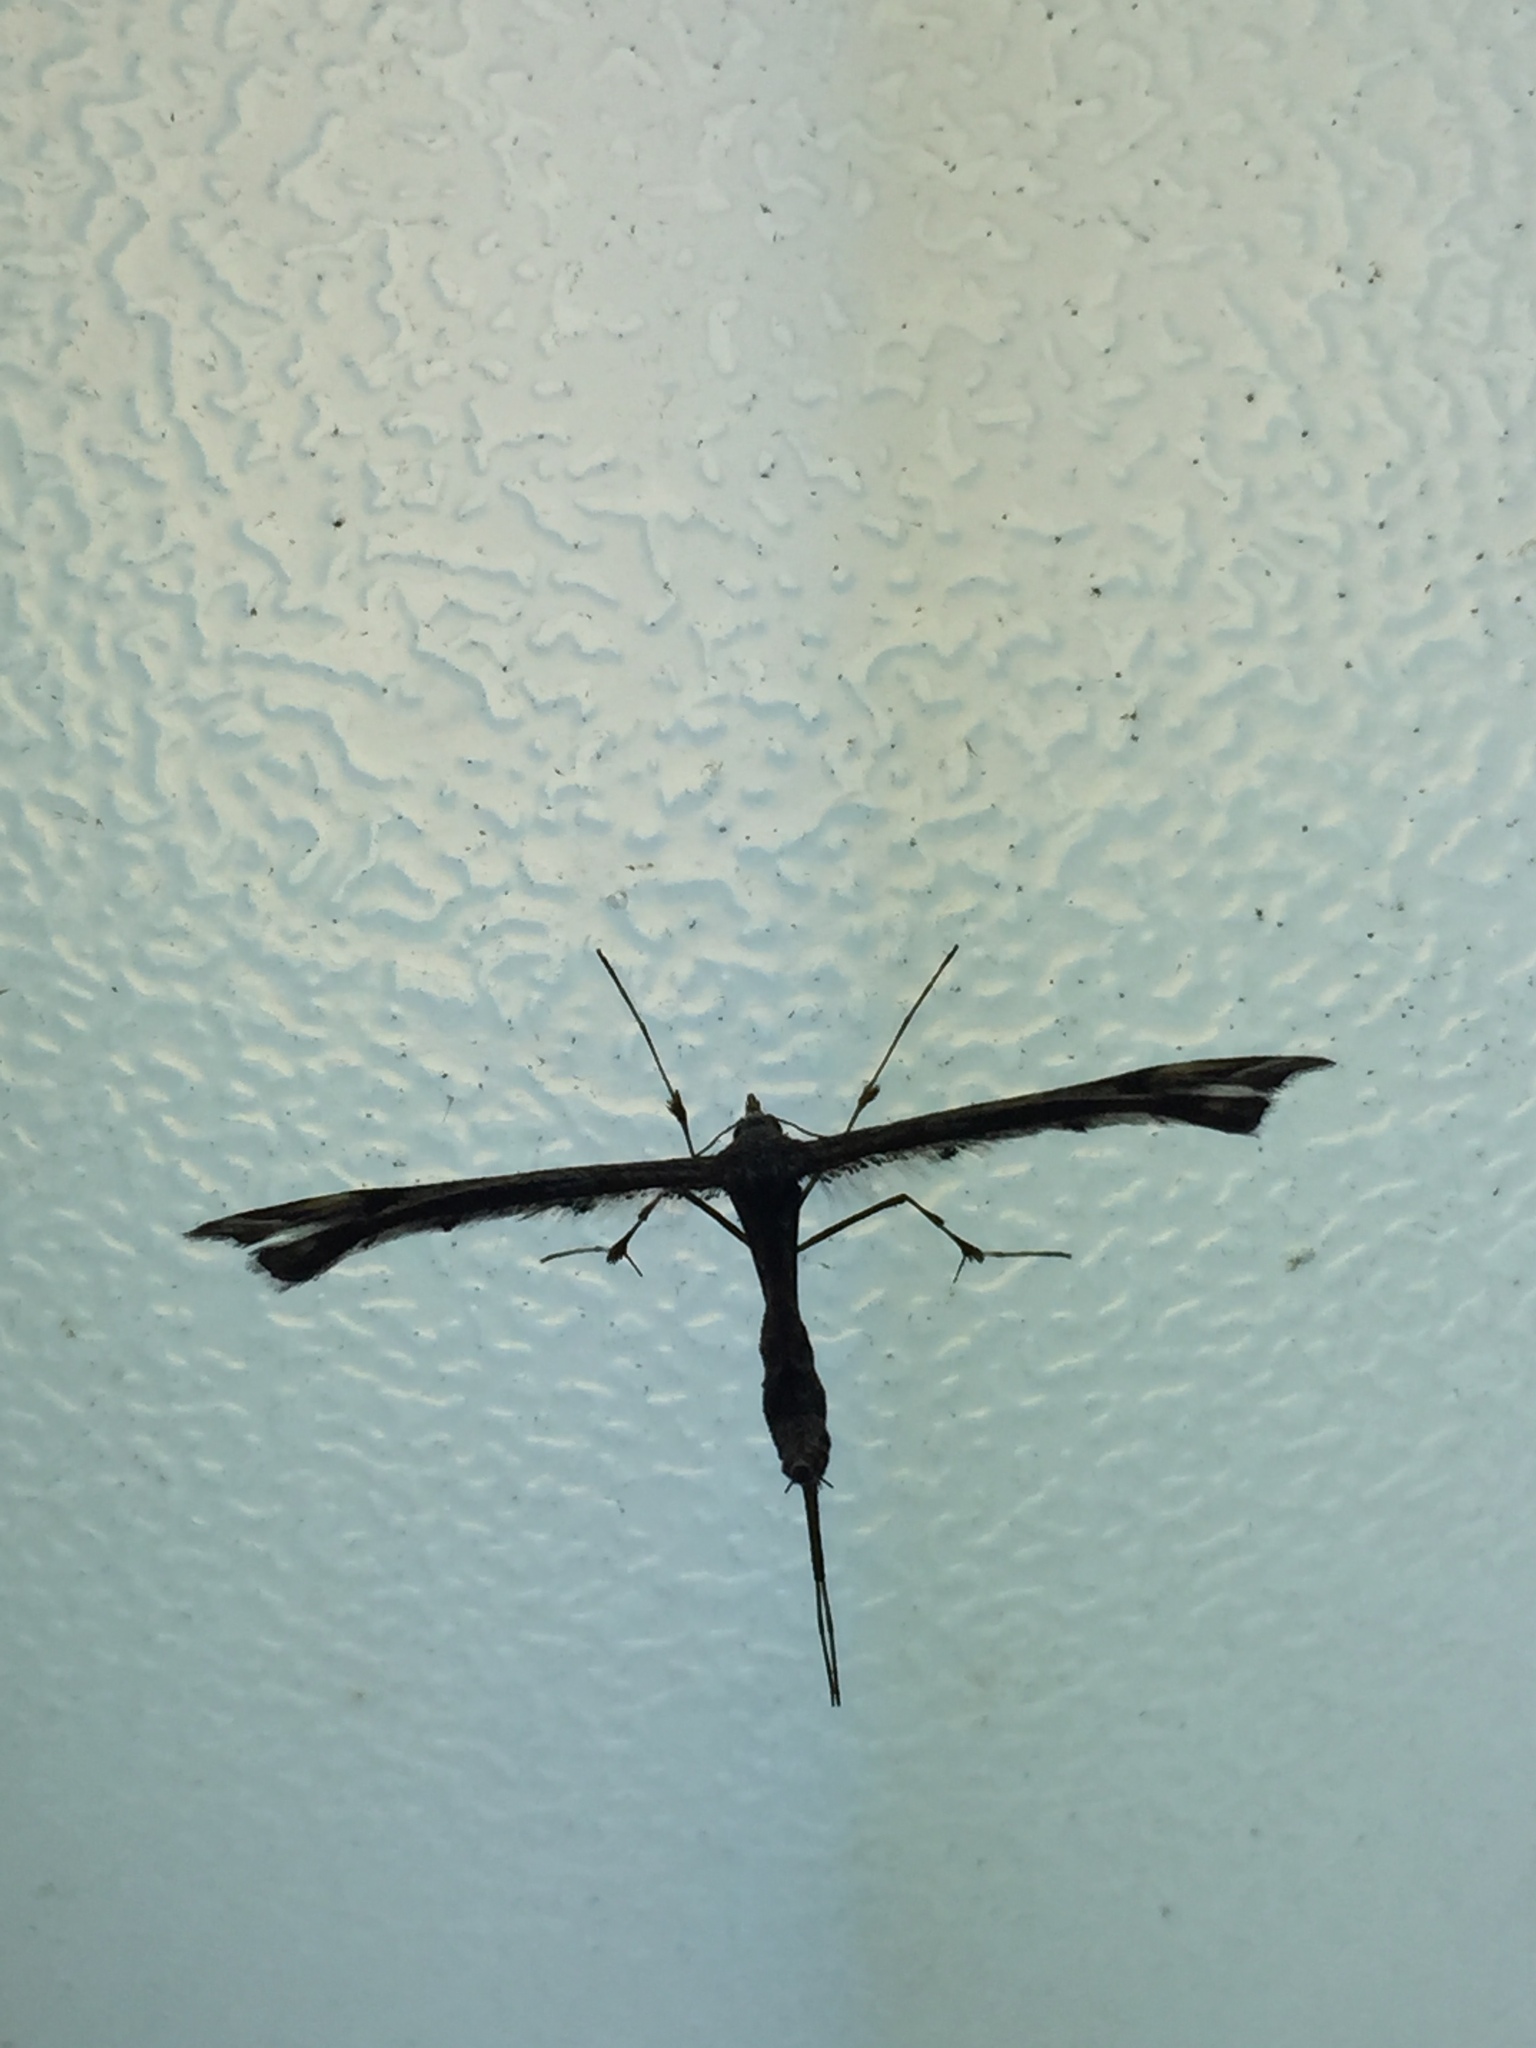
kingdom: Animalia
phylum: Arthropoda
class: Insecta
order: Lepidoptera
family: Pterophoridae
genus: Amblyptilia
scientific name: Amblyptilia falcatalis
